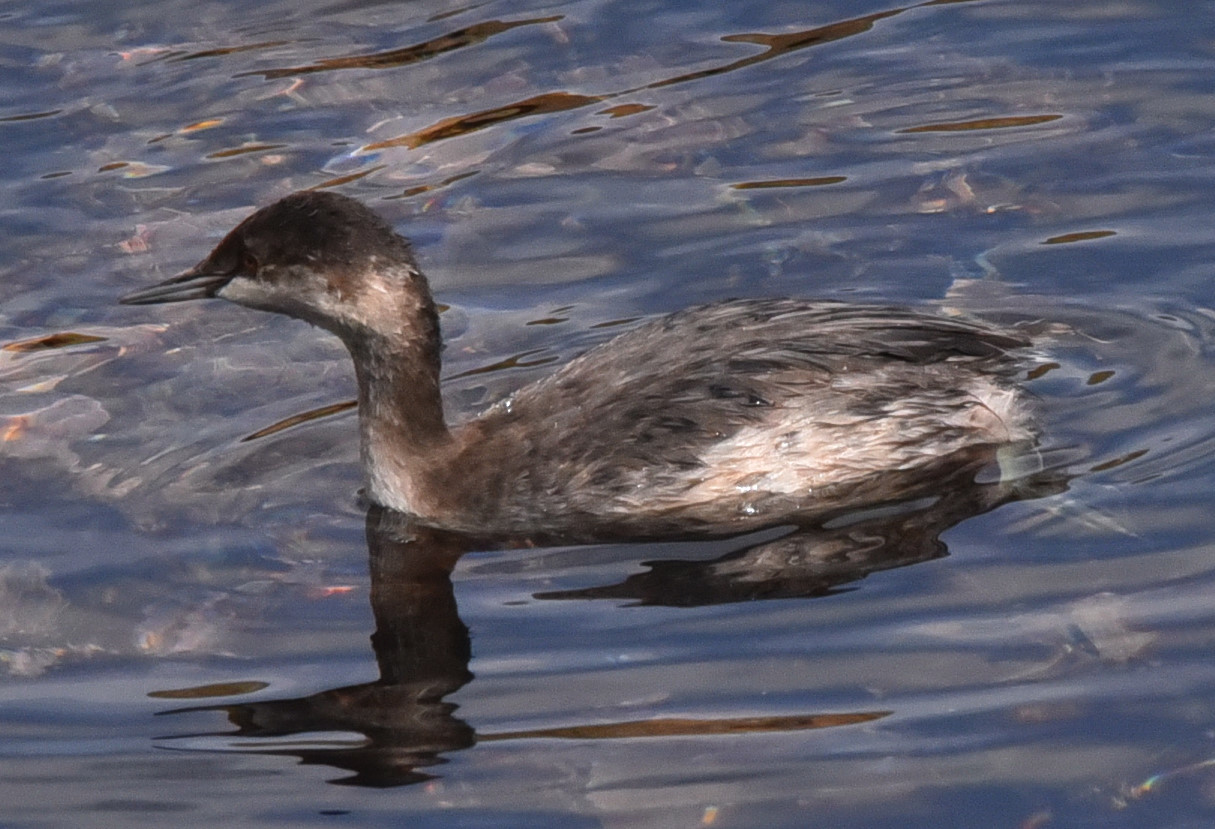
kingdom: Animalia
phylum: Chordata
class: Aves
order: Podicipediformes
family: Podicipedidae
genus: Podiceps
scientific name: Podiceps nigricollis
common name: Black-necked grebe
